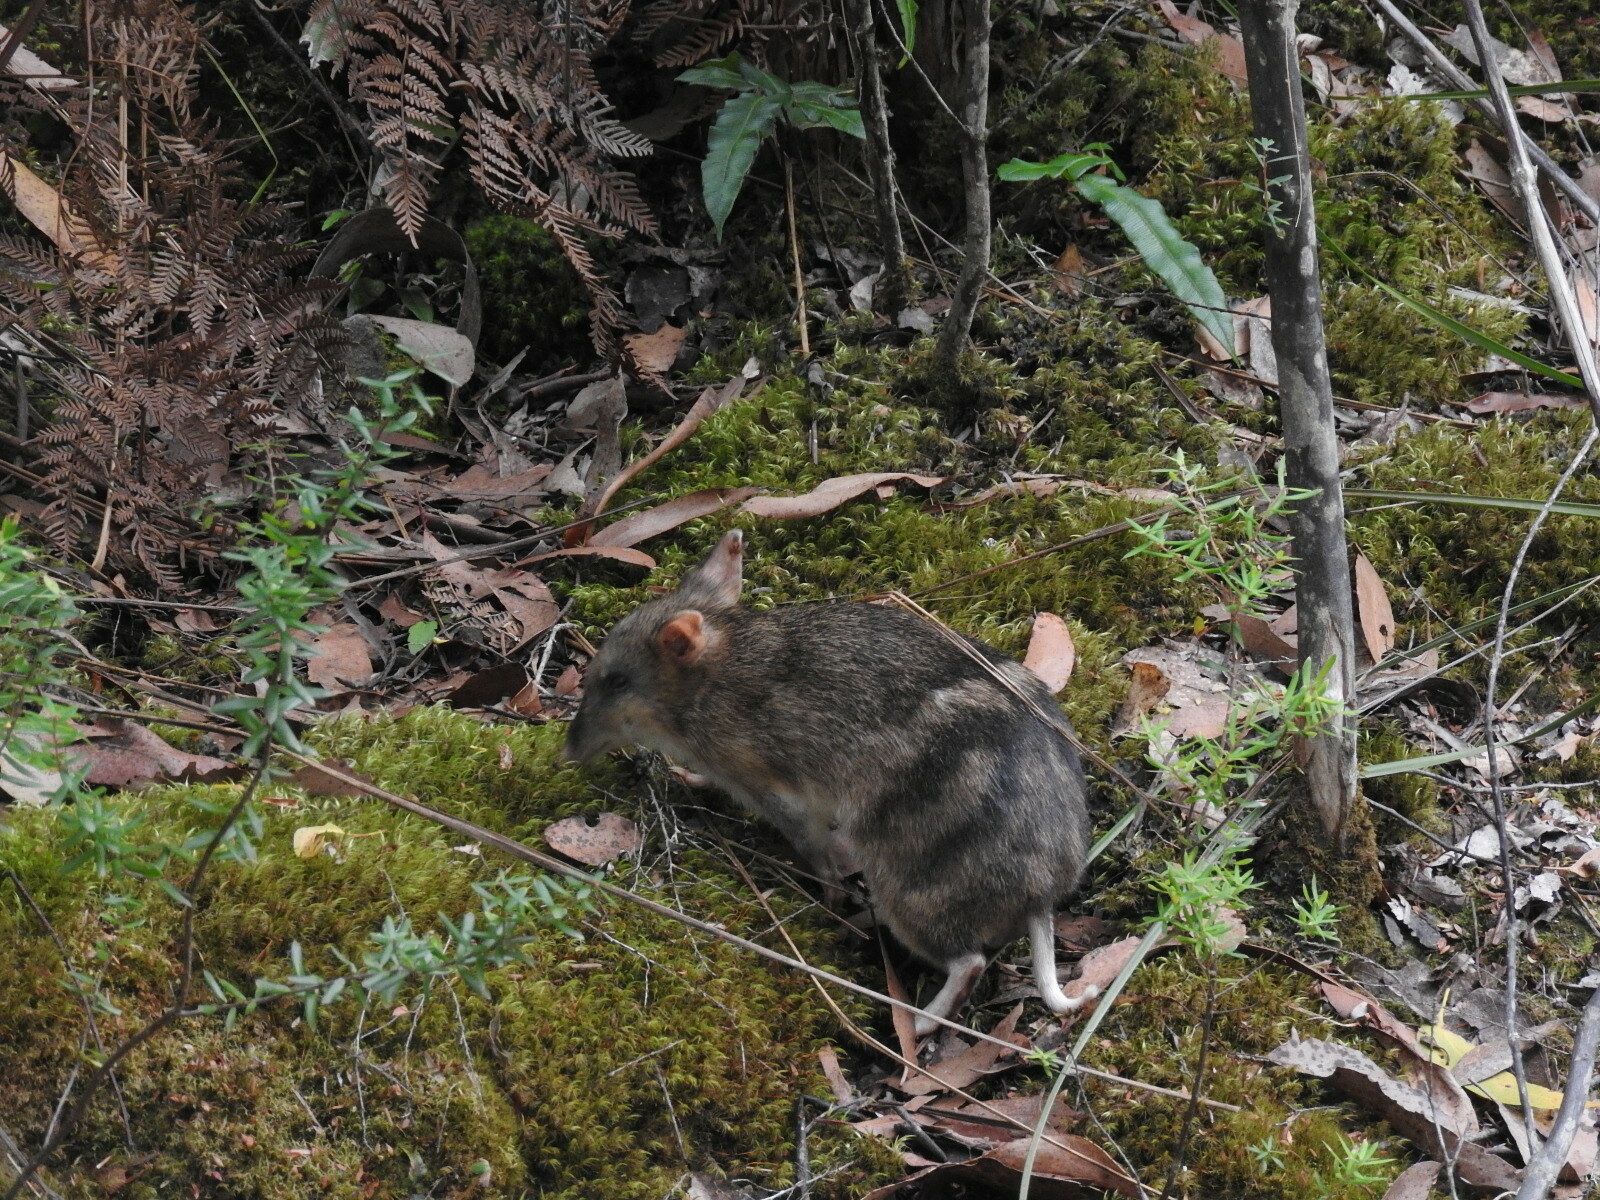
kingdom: Animalia
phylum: Chordata
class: Mammalia
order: Peramelemorphia
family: Peramelidae
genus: Perameles
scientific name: Perameles gunnii
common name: Eastern barred bandicoot
